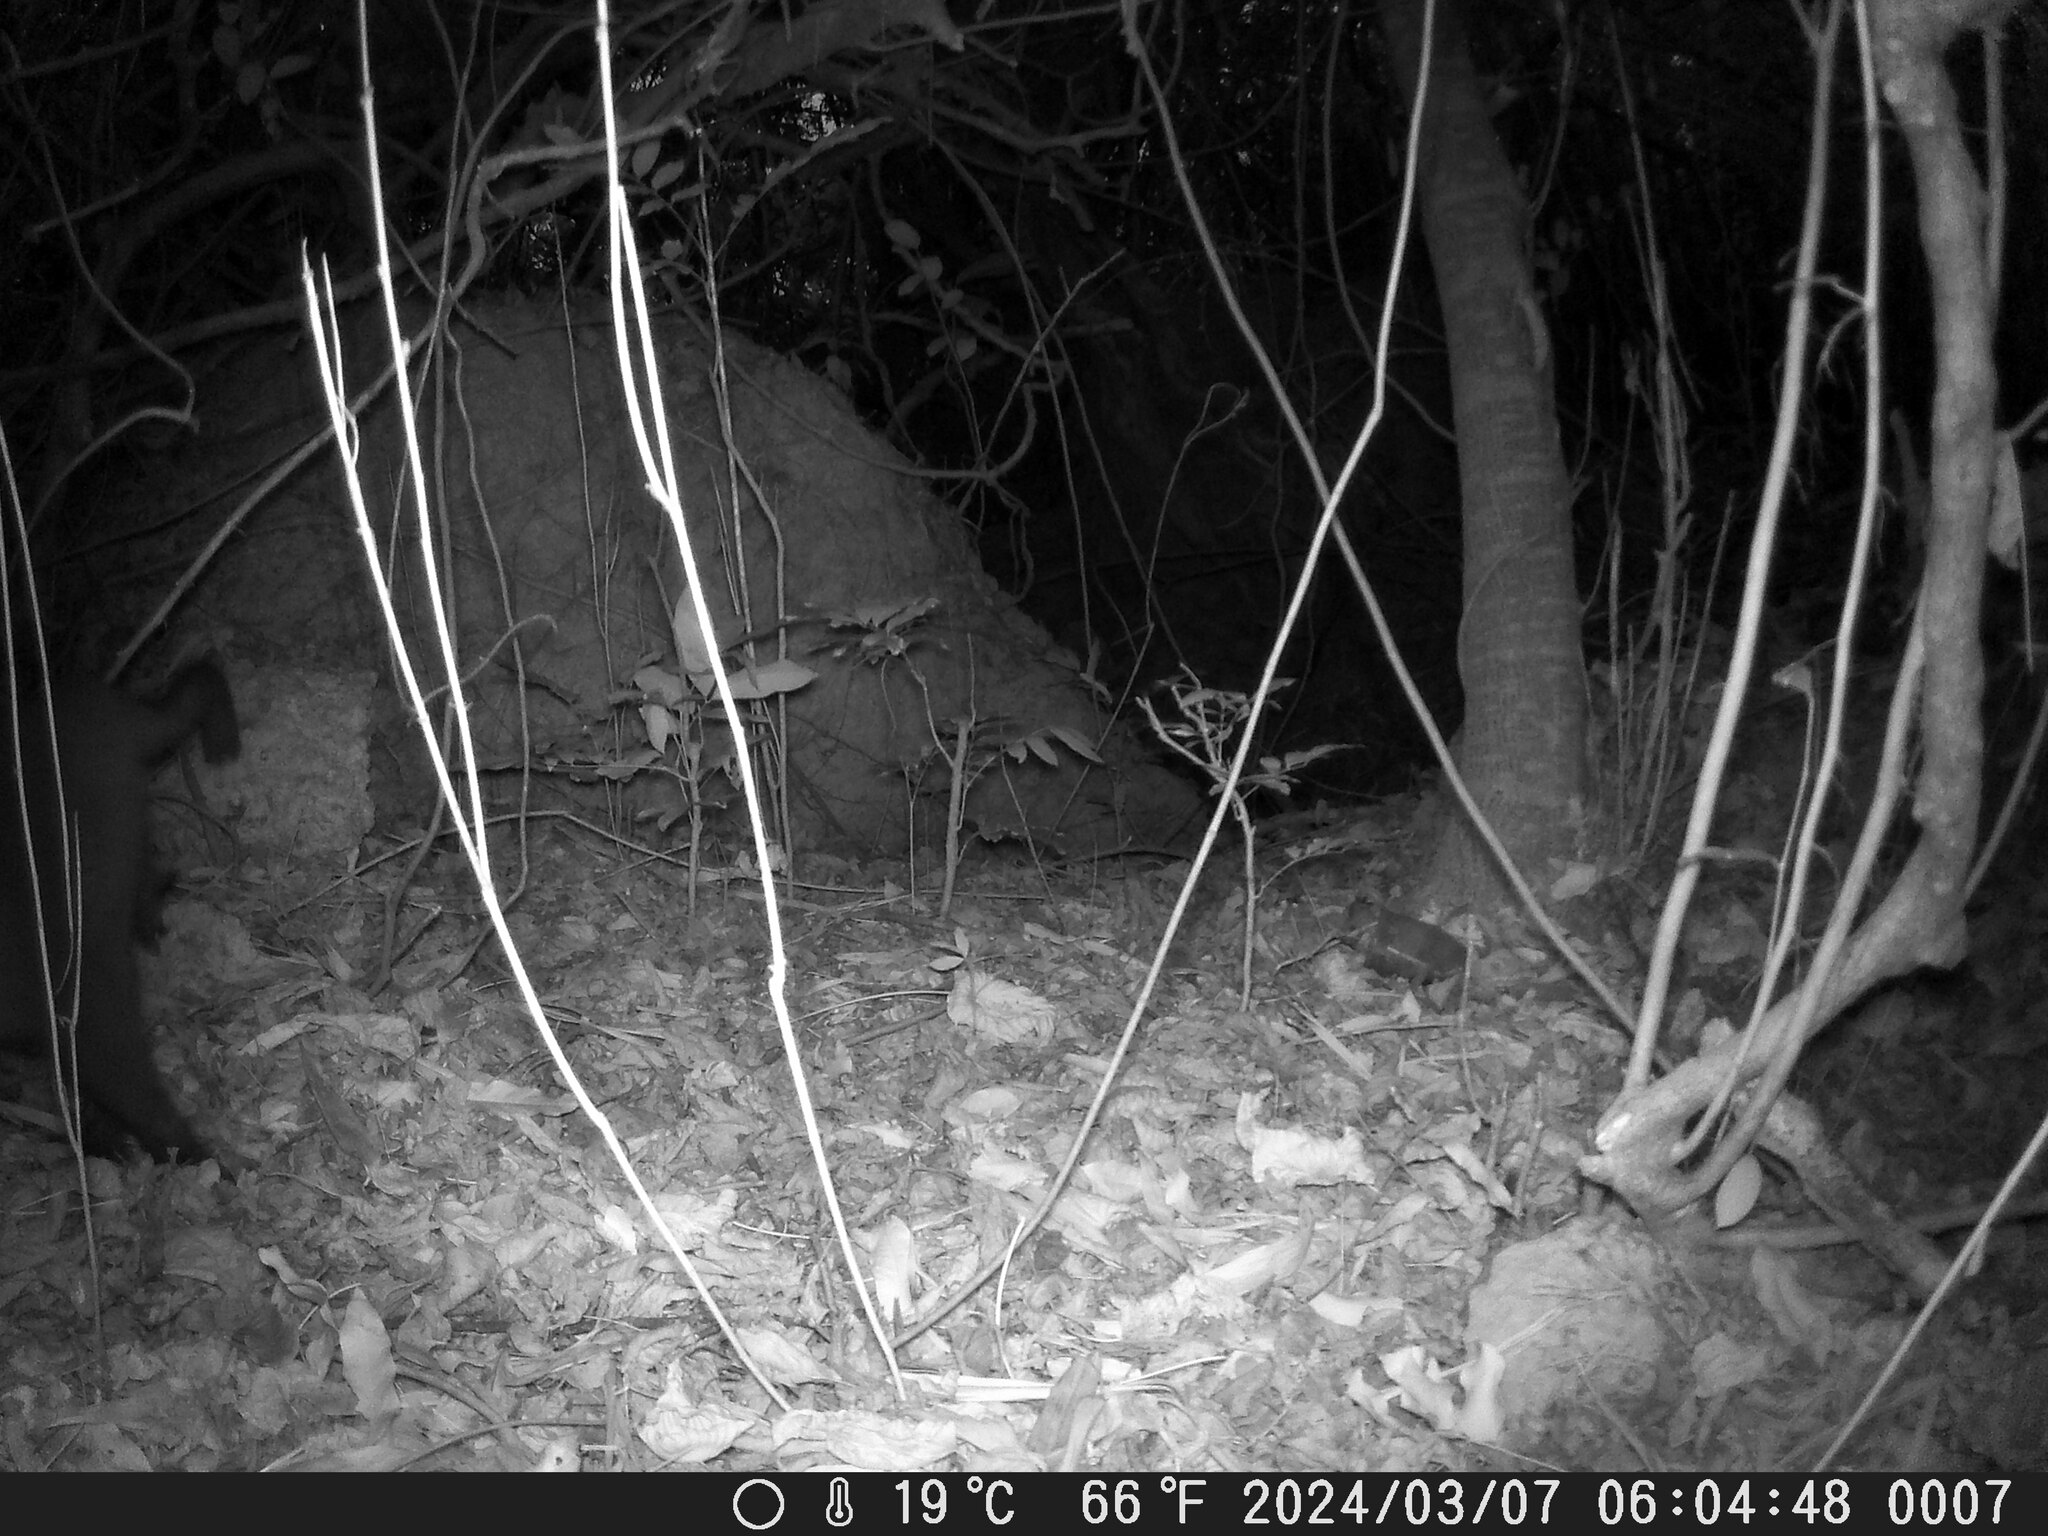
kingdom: Animalia
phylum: Chordata
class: Mammalia
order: Primates
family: Cercopithecidae
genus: Macaca
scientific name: Macaca cyclopis
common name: Formosan rock macaque
